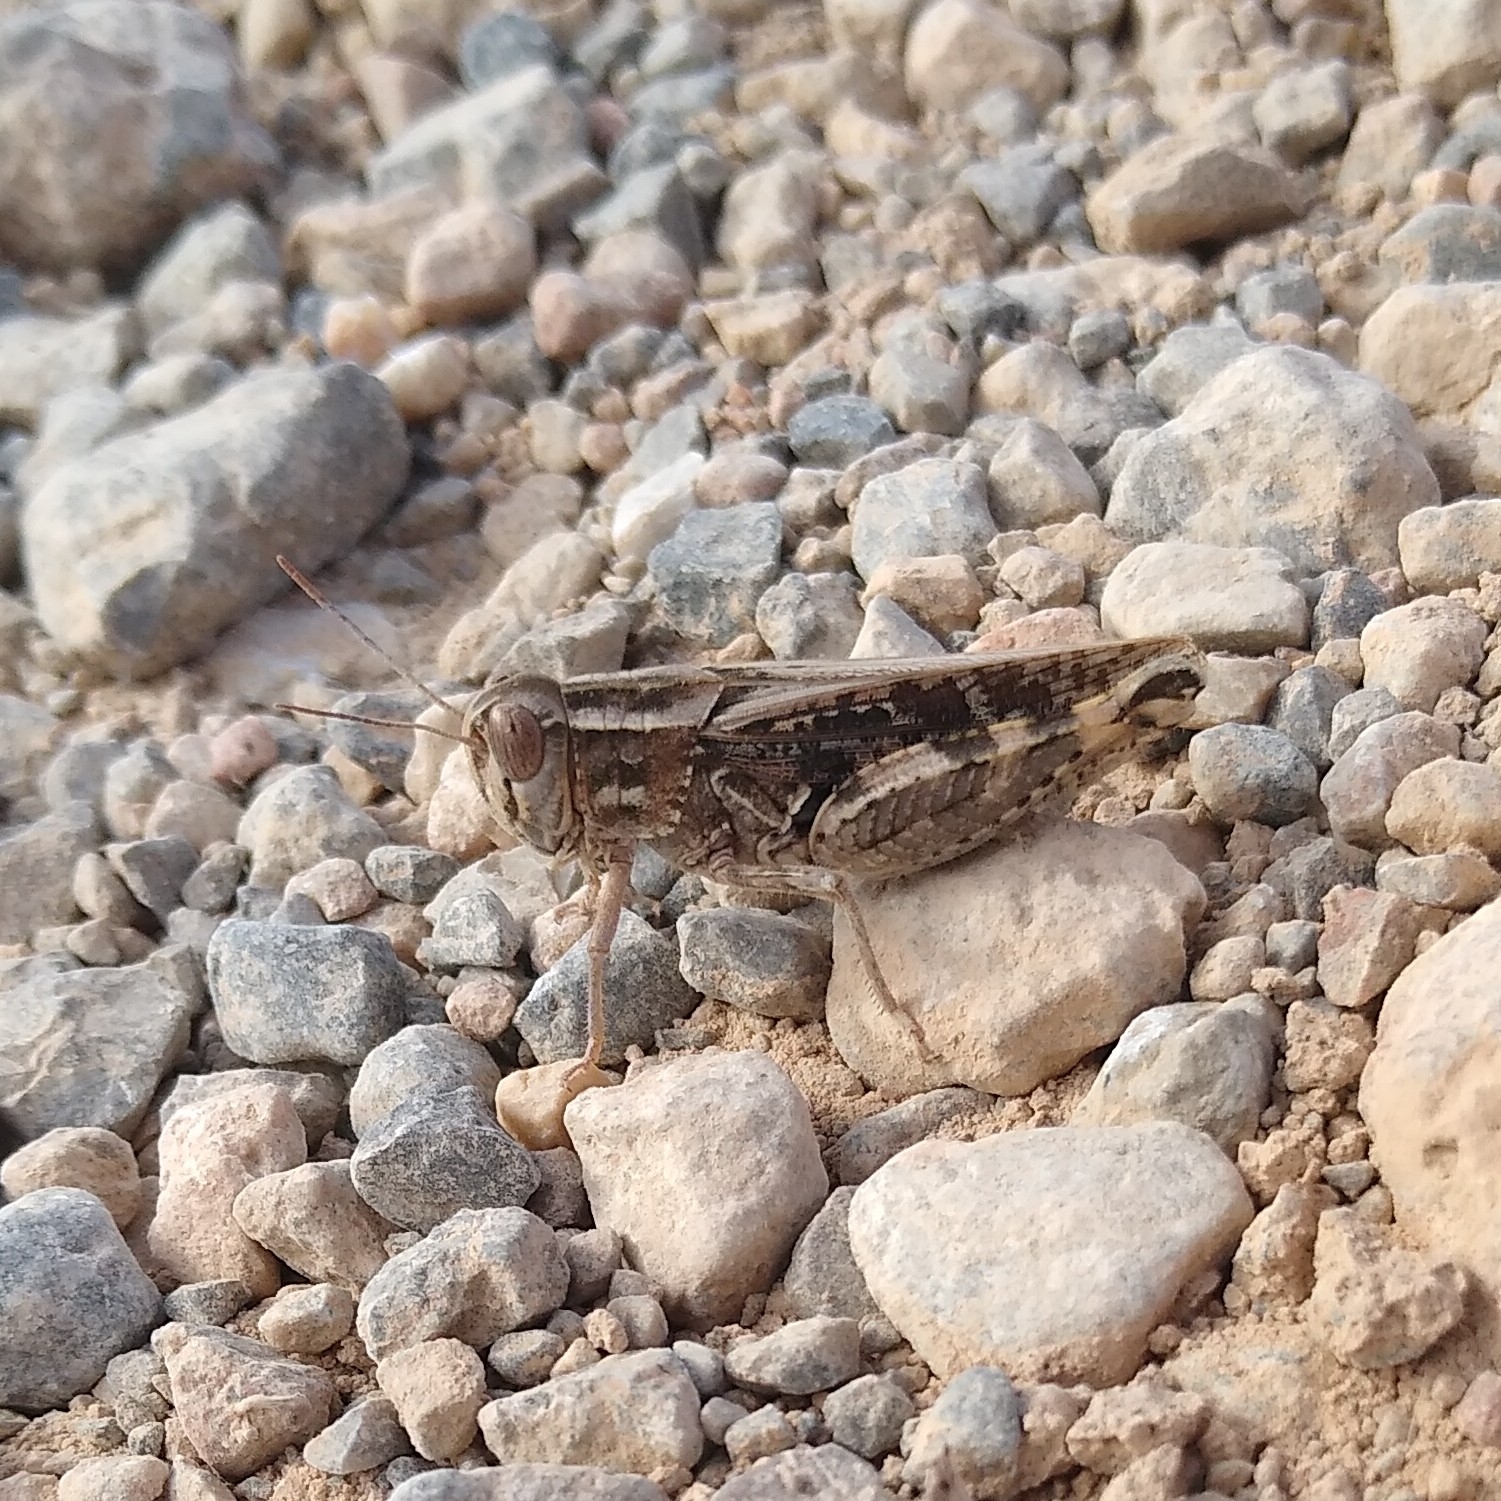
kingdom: Animalia
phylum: Arthropoda
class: Insecta
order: Orthoptera
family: Acrididae
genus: Calliptamus
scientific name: Calliptamus
